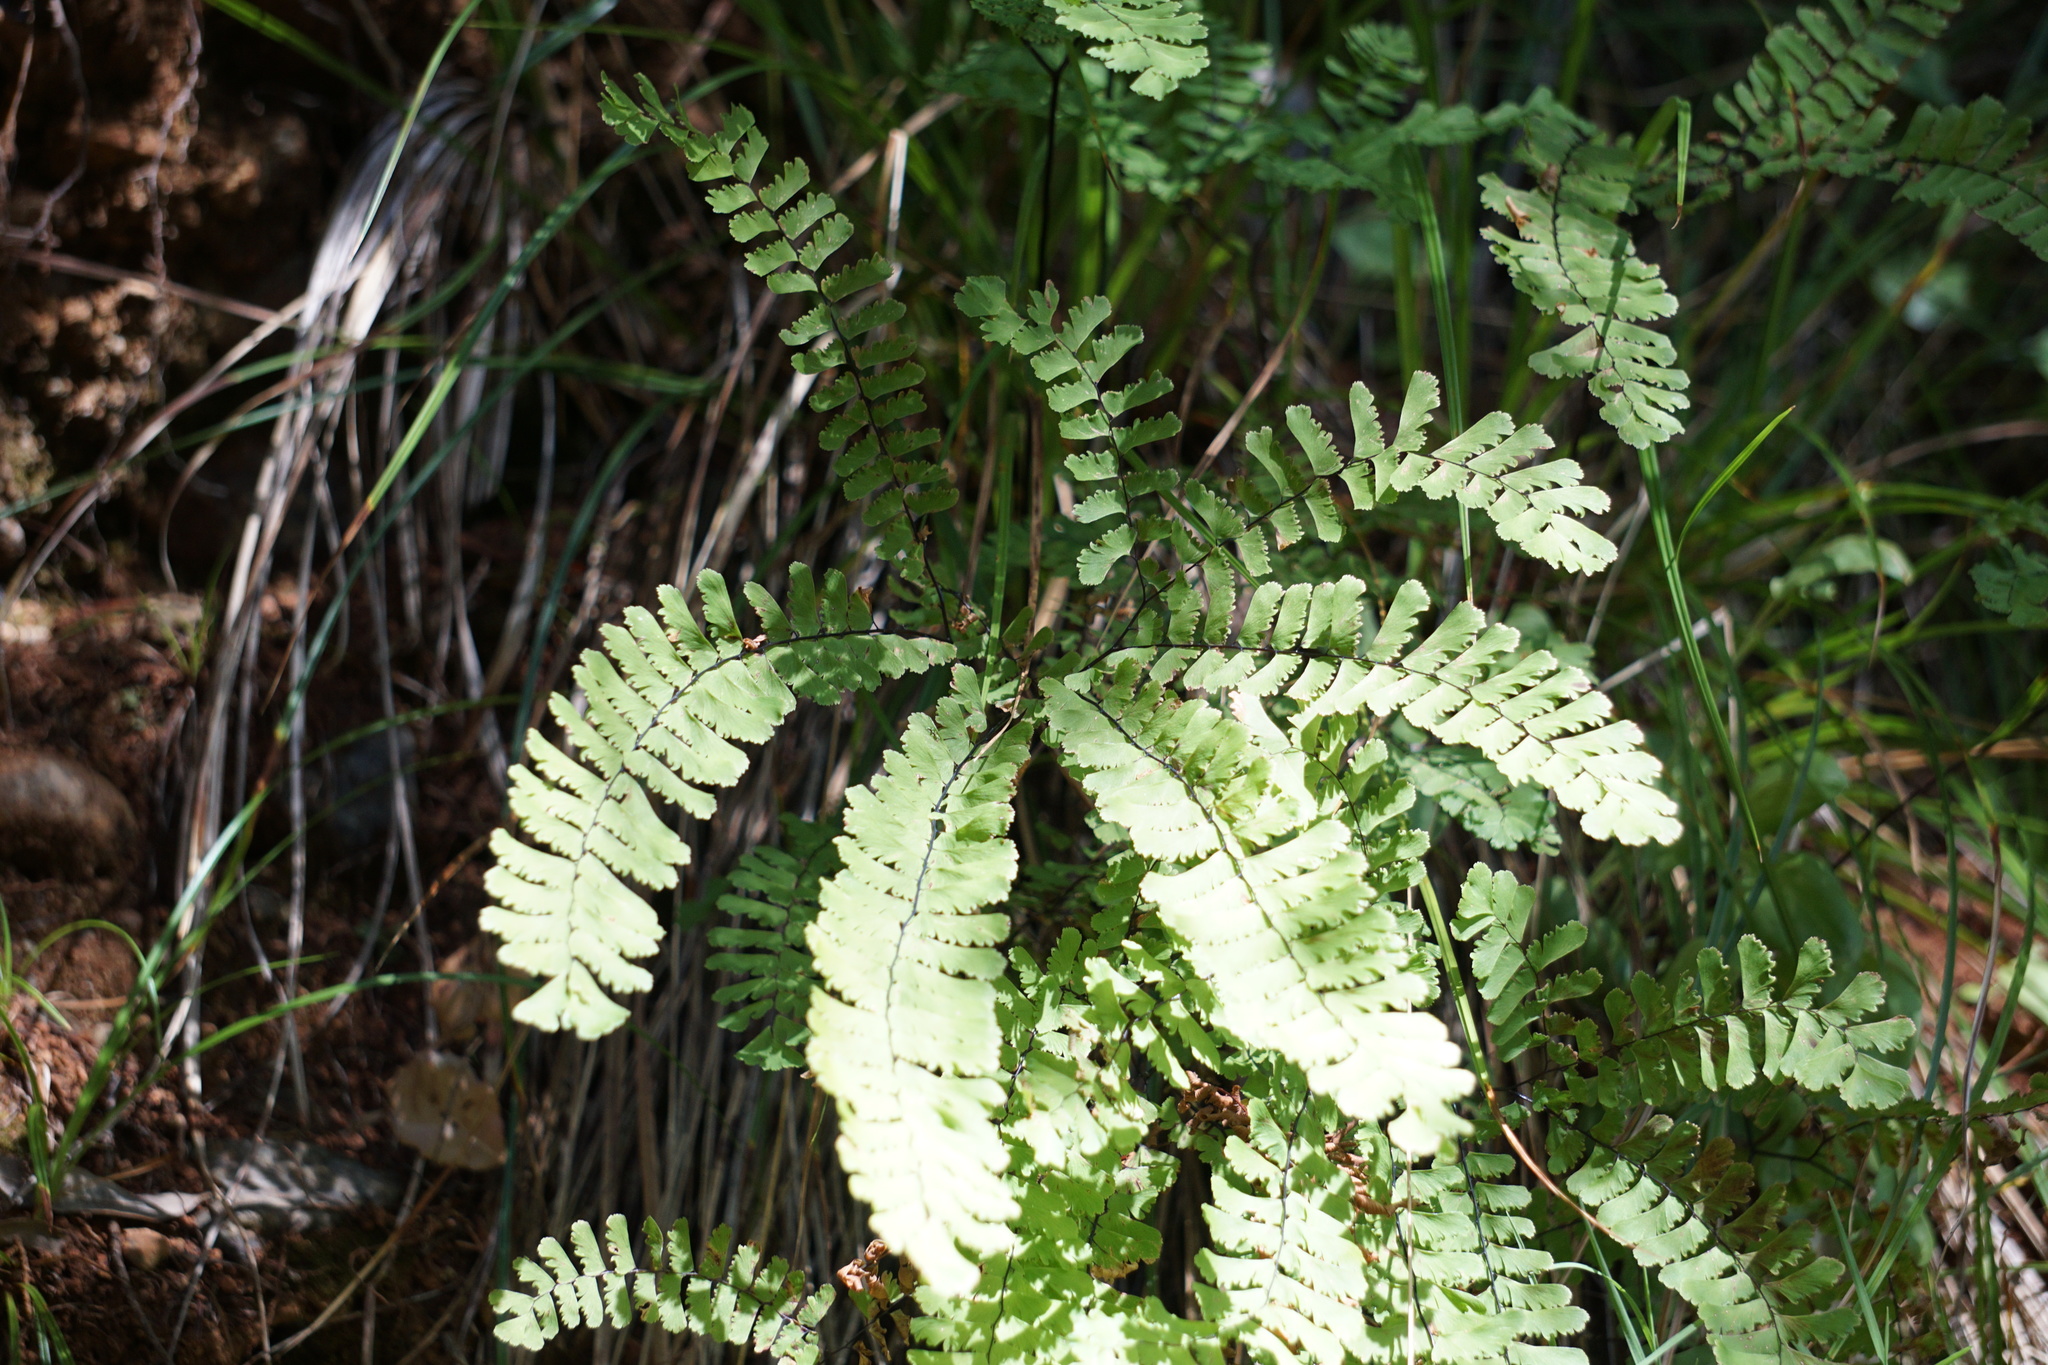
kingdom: Plantae
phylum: Tracheophyta
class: Polypodiopsida
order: Polypodiales
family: Pteridaceae
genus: Adiantum
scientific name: Adiantum aleuticum
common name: Aleutian maidenhair fern
